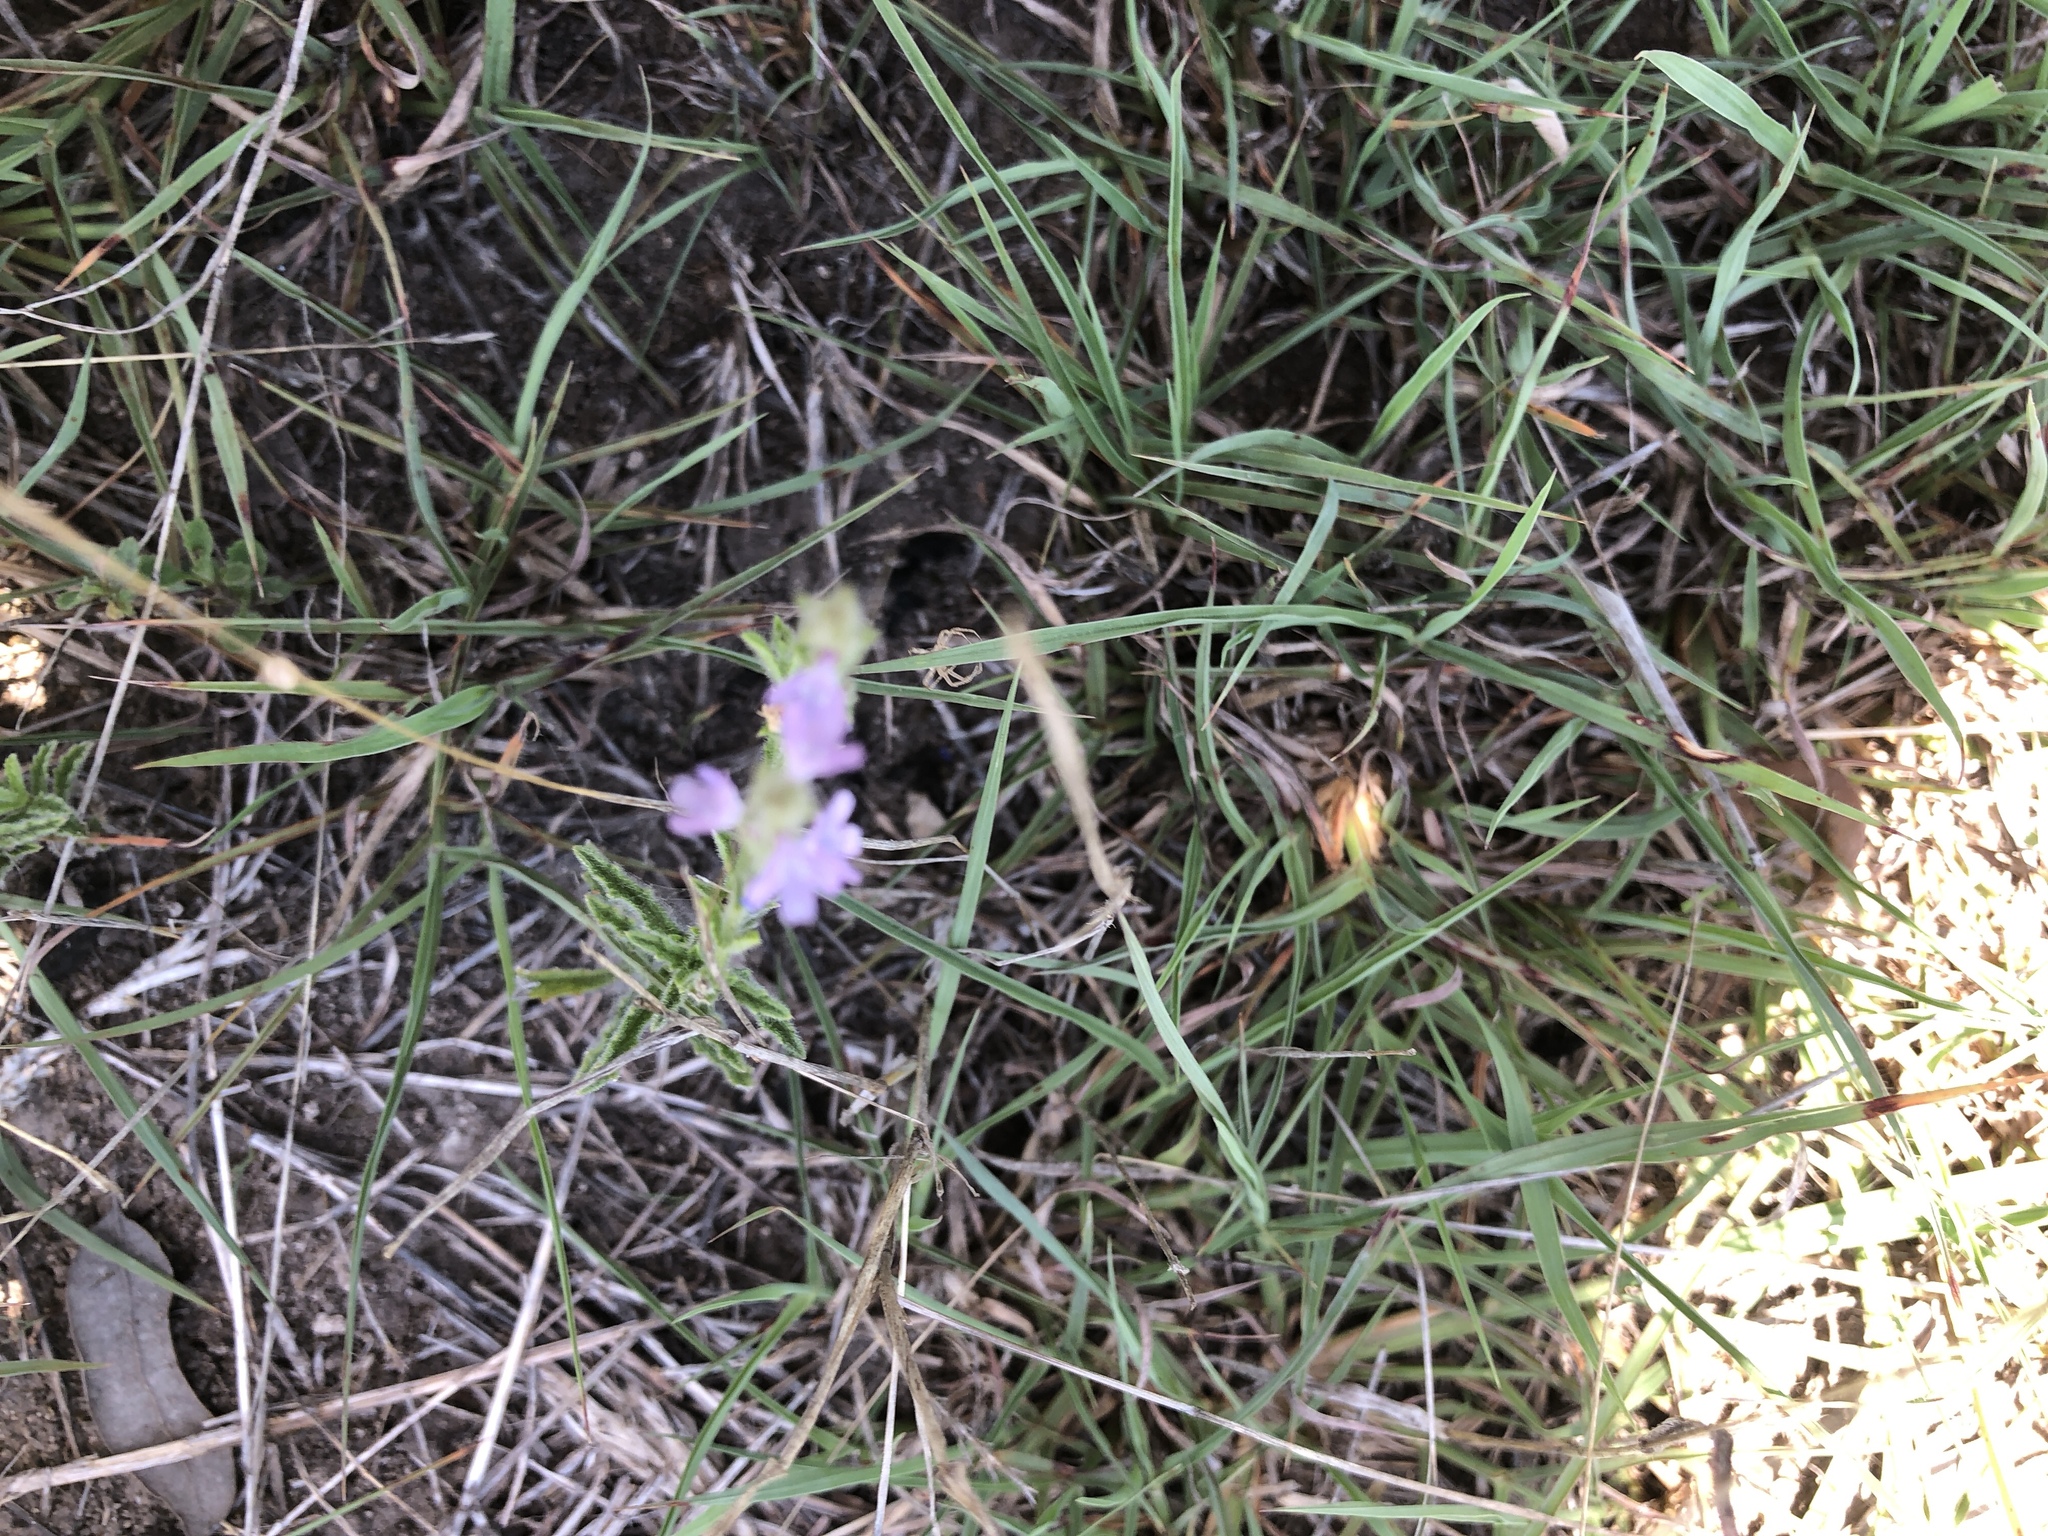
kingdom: Plantae
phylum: Tracheophyta
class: Magnoliopsida
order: Lamiales
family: Verbenaceae
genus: Verbena
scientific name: Verbena canescens
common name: Gray vervain
